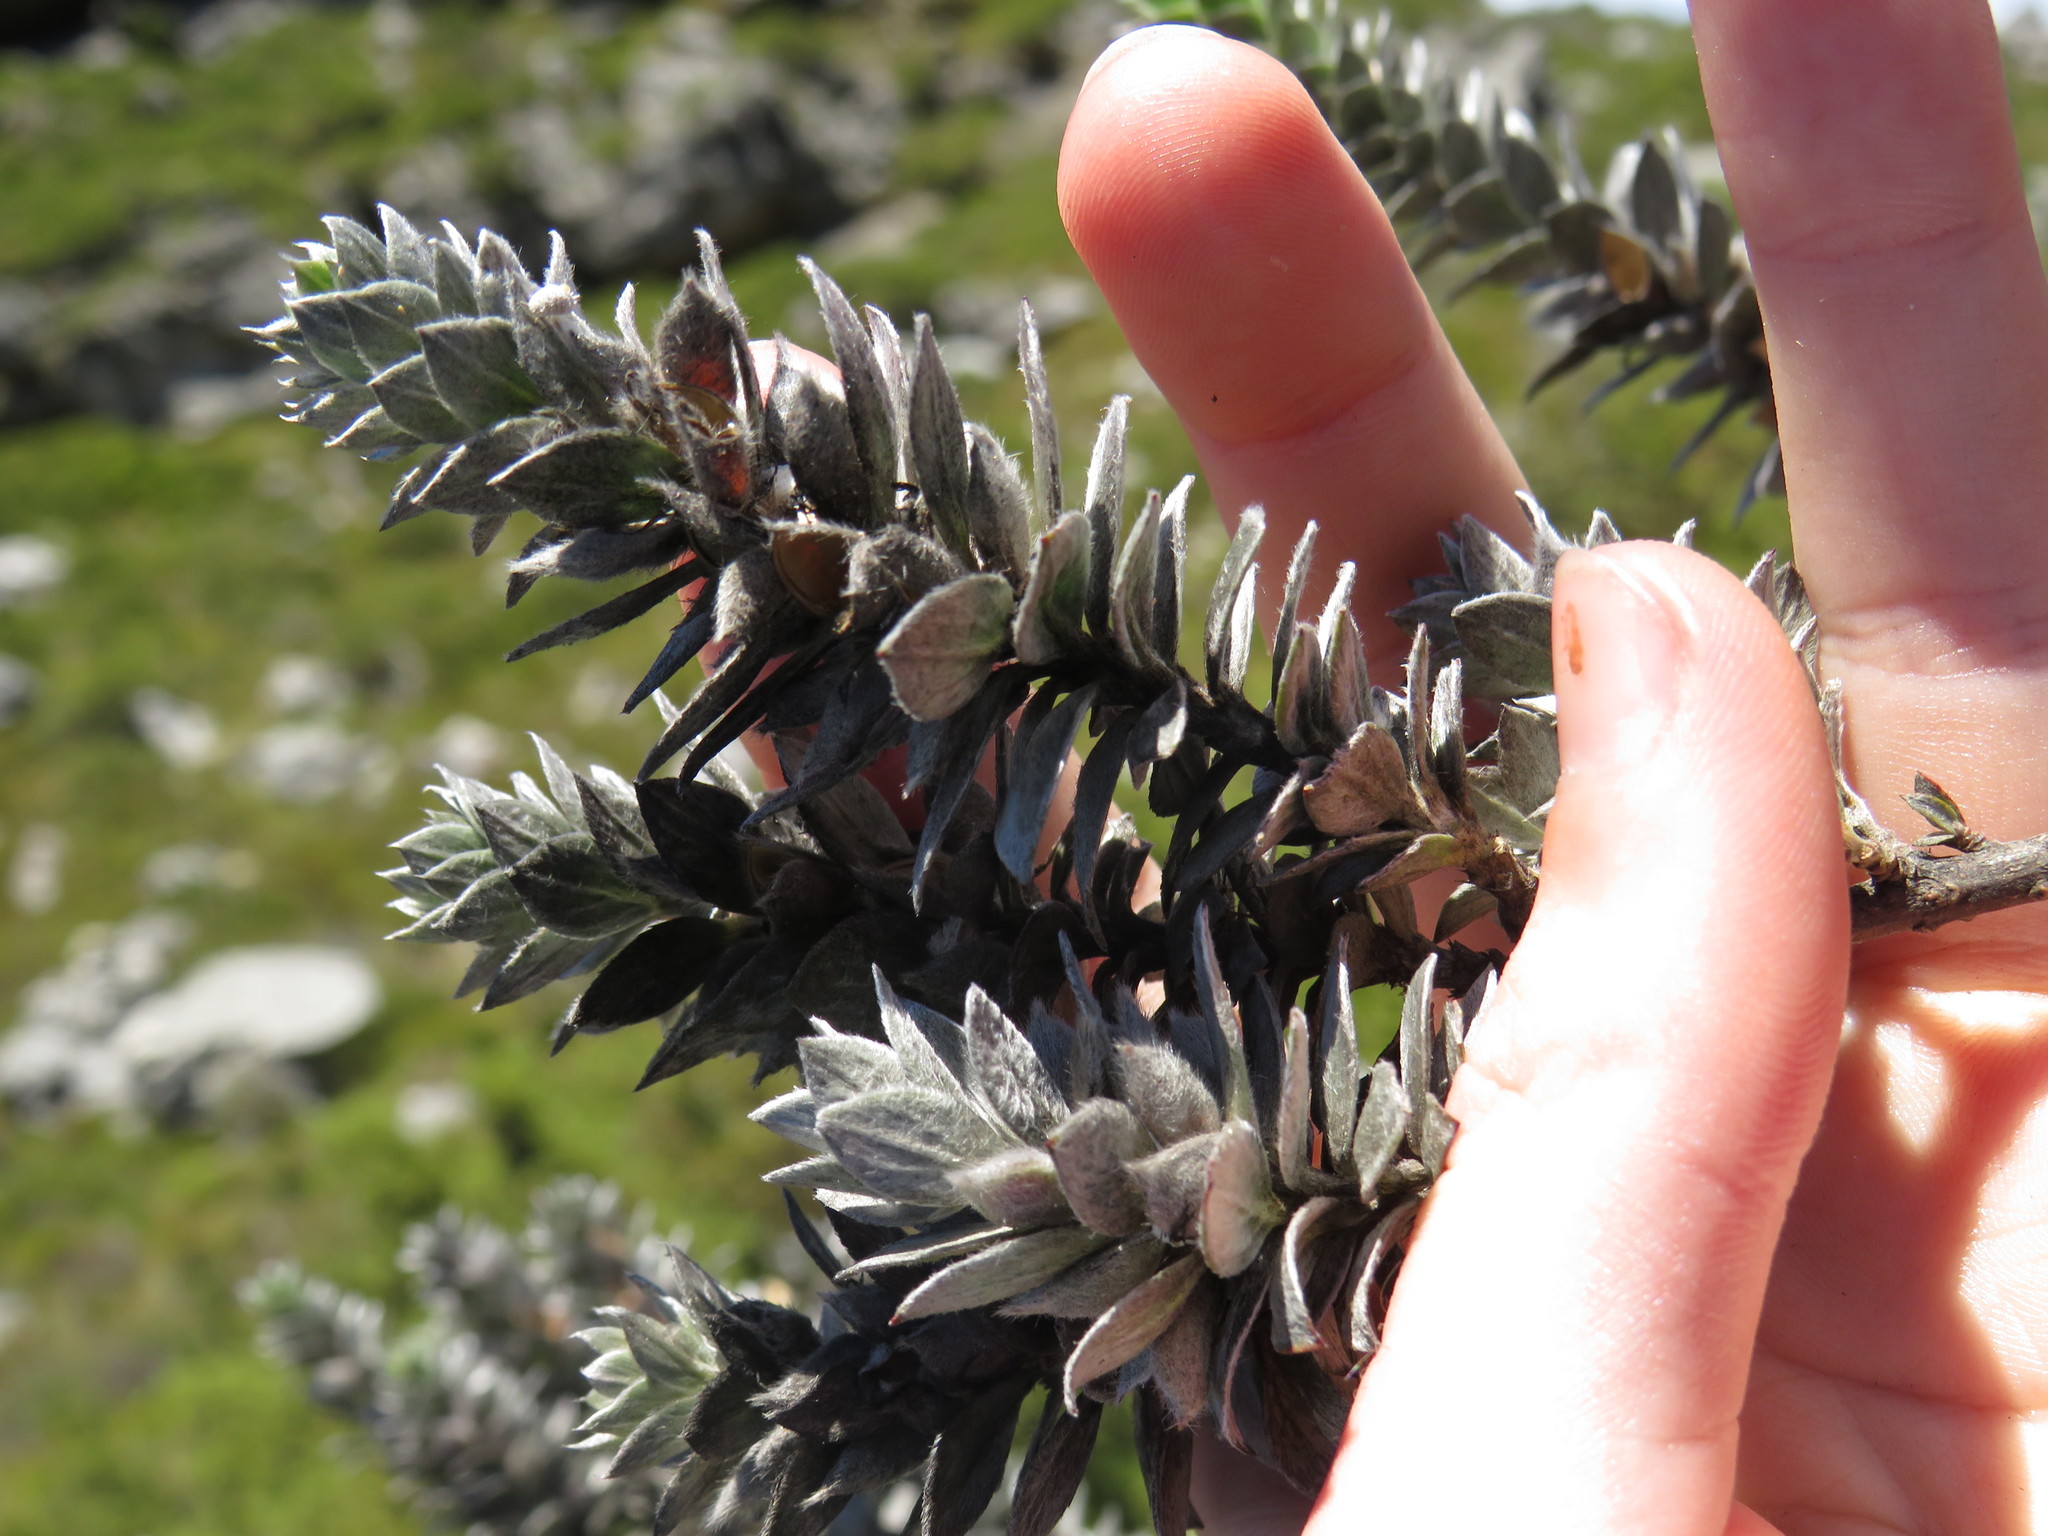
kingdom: Plantae
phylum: Tracheophyta
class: Magnoliopsida
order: Fabales
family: Fabaceae
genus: Amphithalea
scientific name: Amphithalea imbricata
